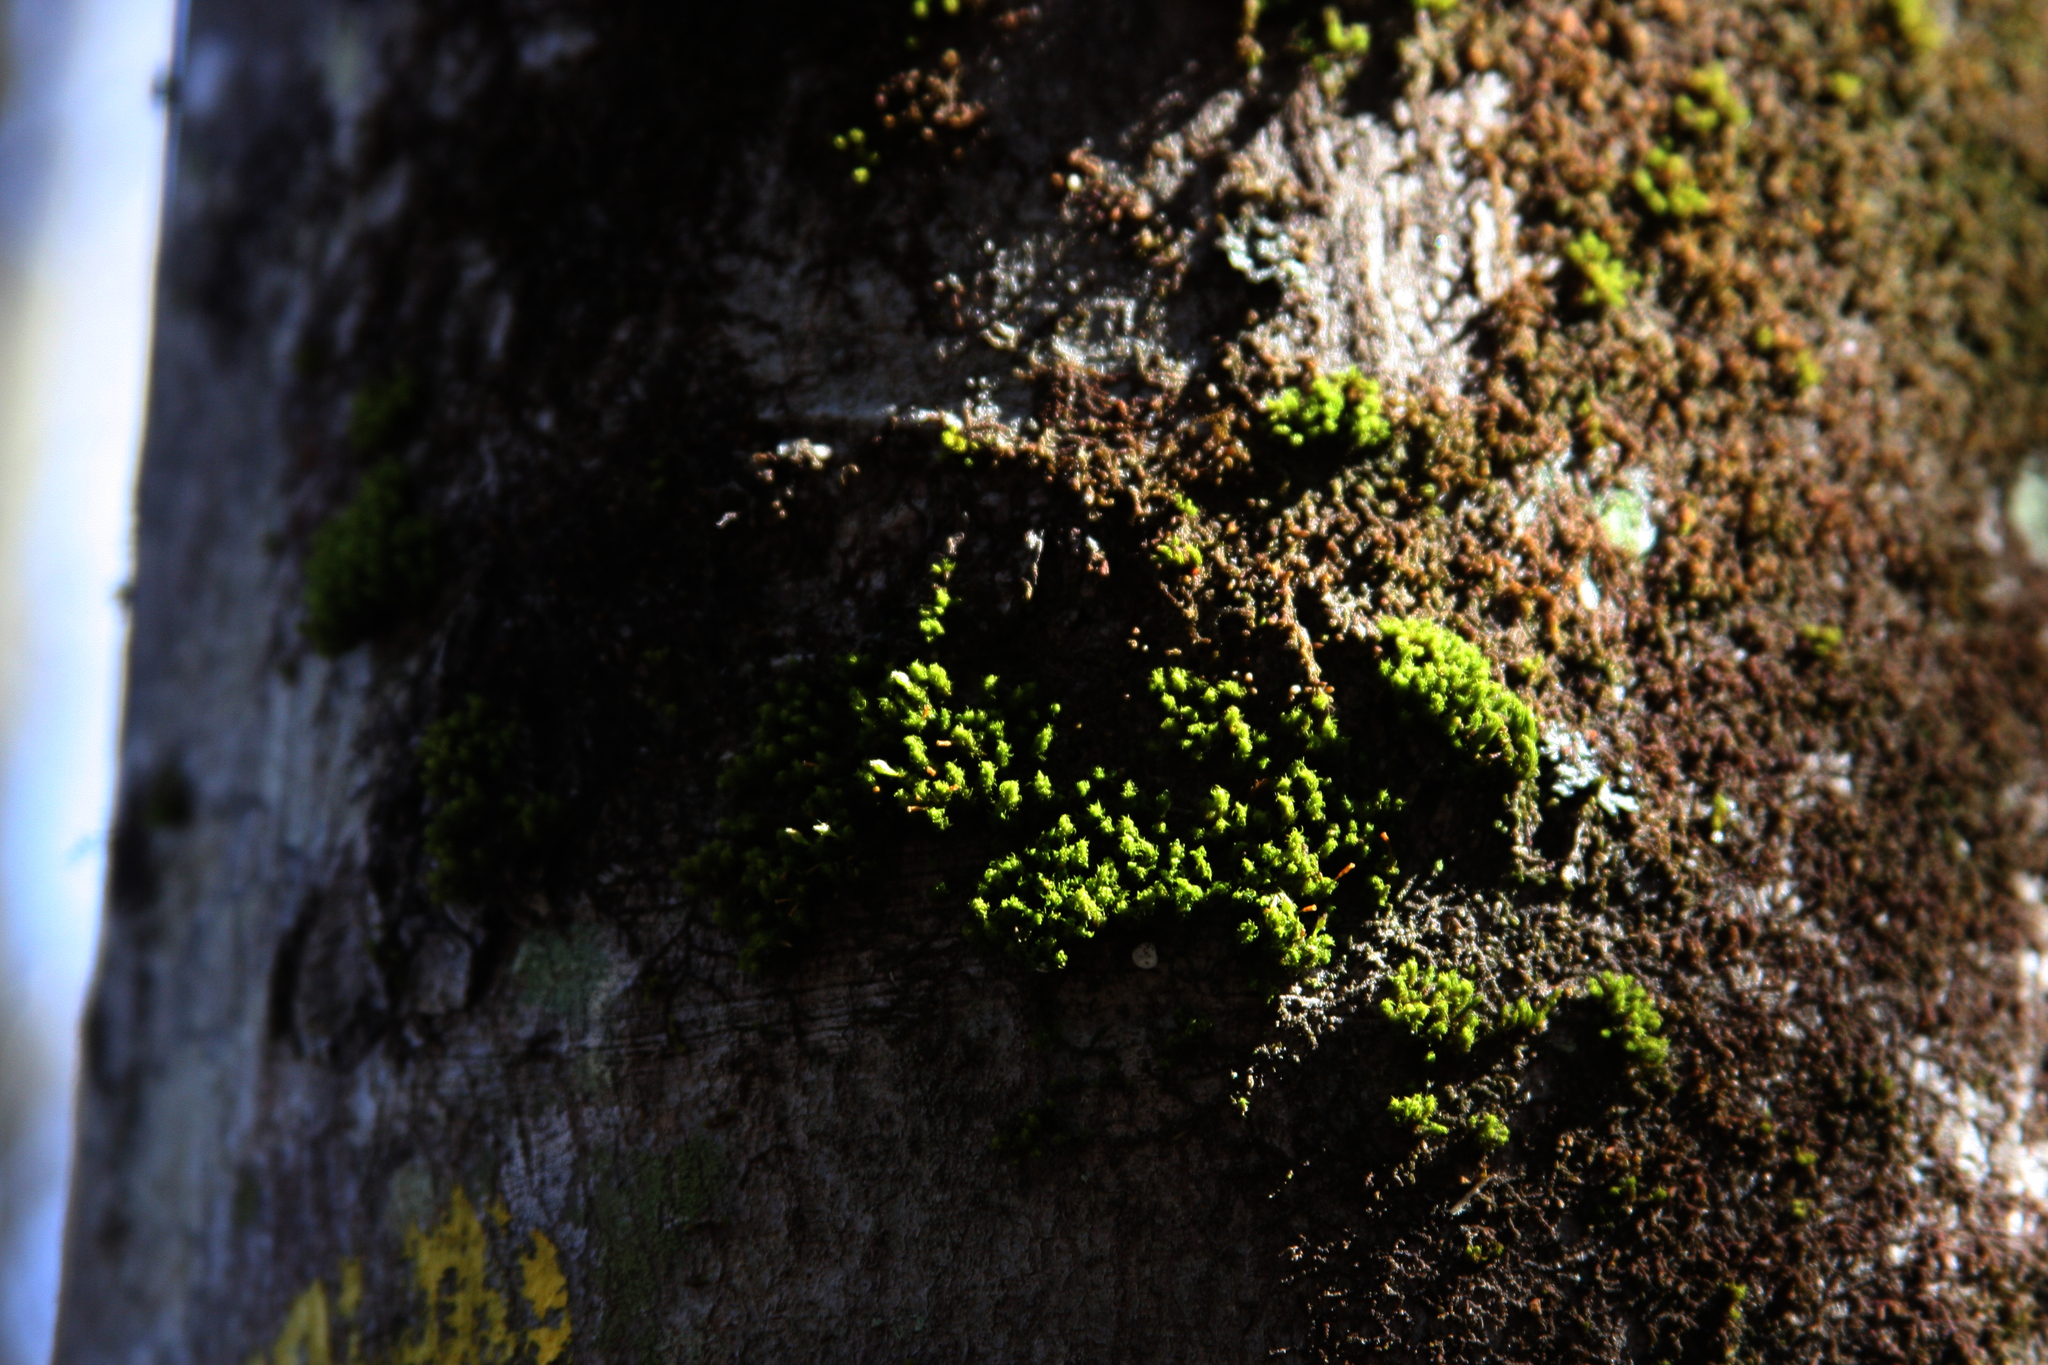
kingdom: Plantae
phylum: Bryophyta
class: Bryopsida
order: Orthotrichales
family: Orthotrichaceae
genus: Ulota
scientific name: Ulota crispa
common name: Crisped pincushion moss
